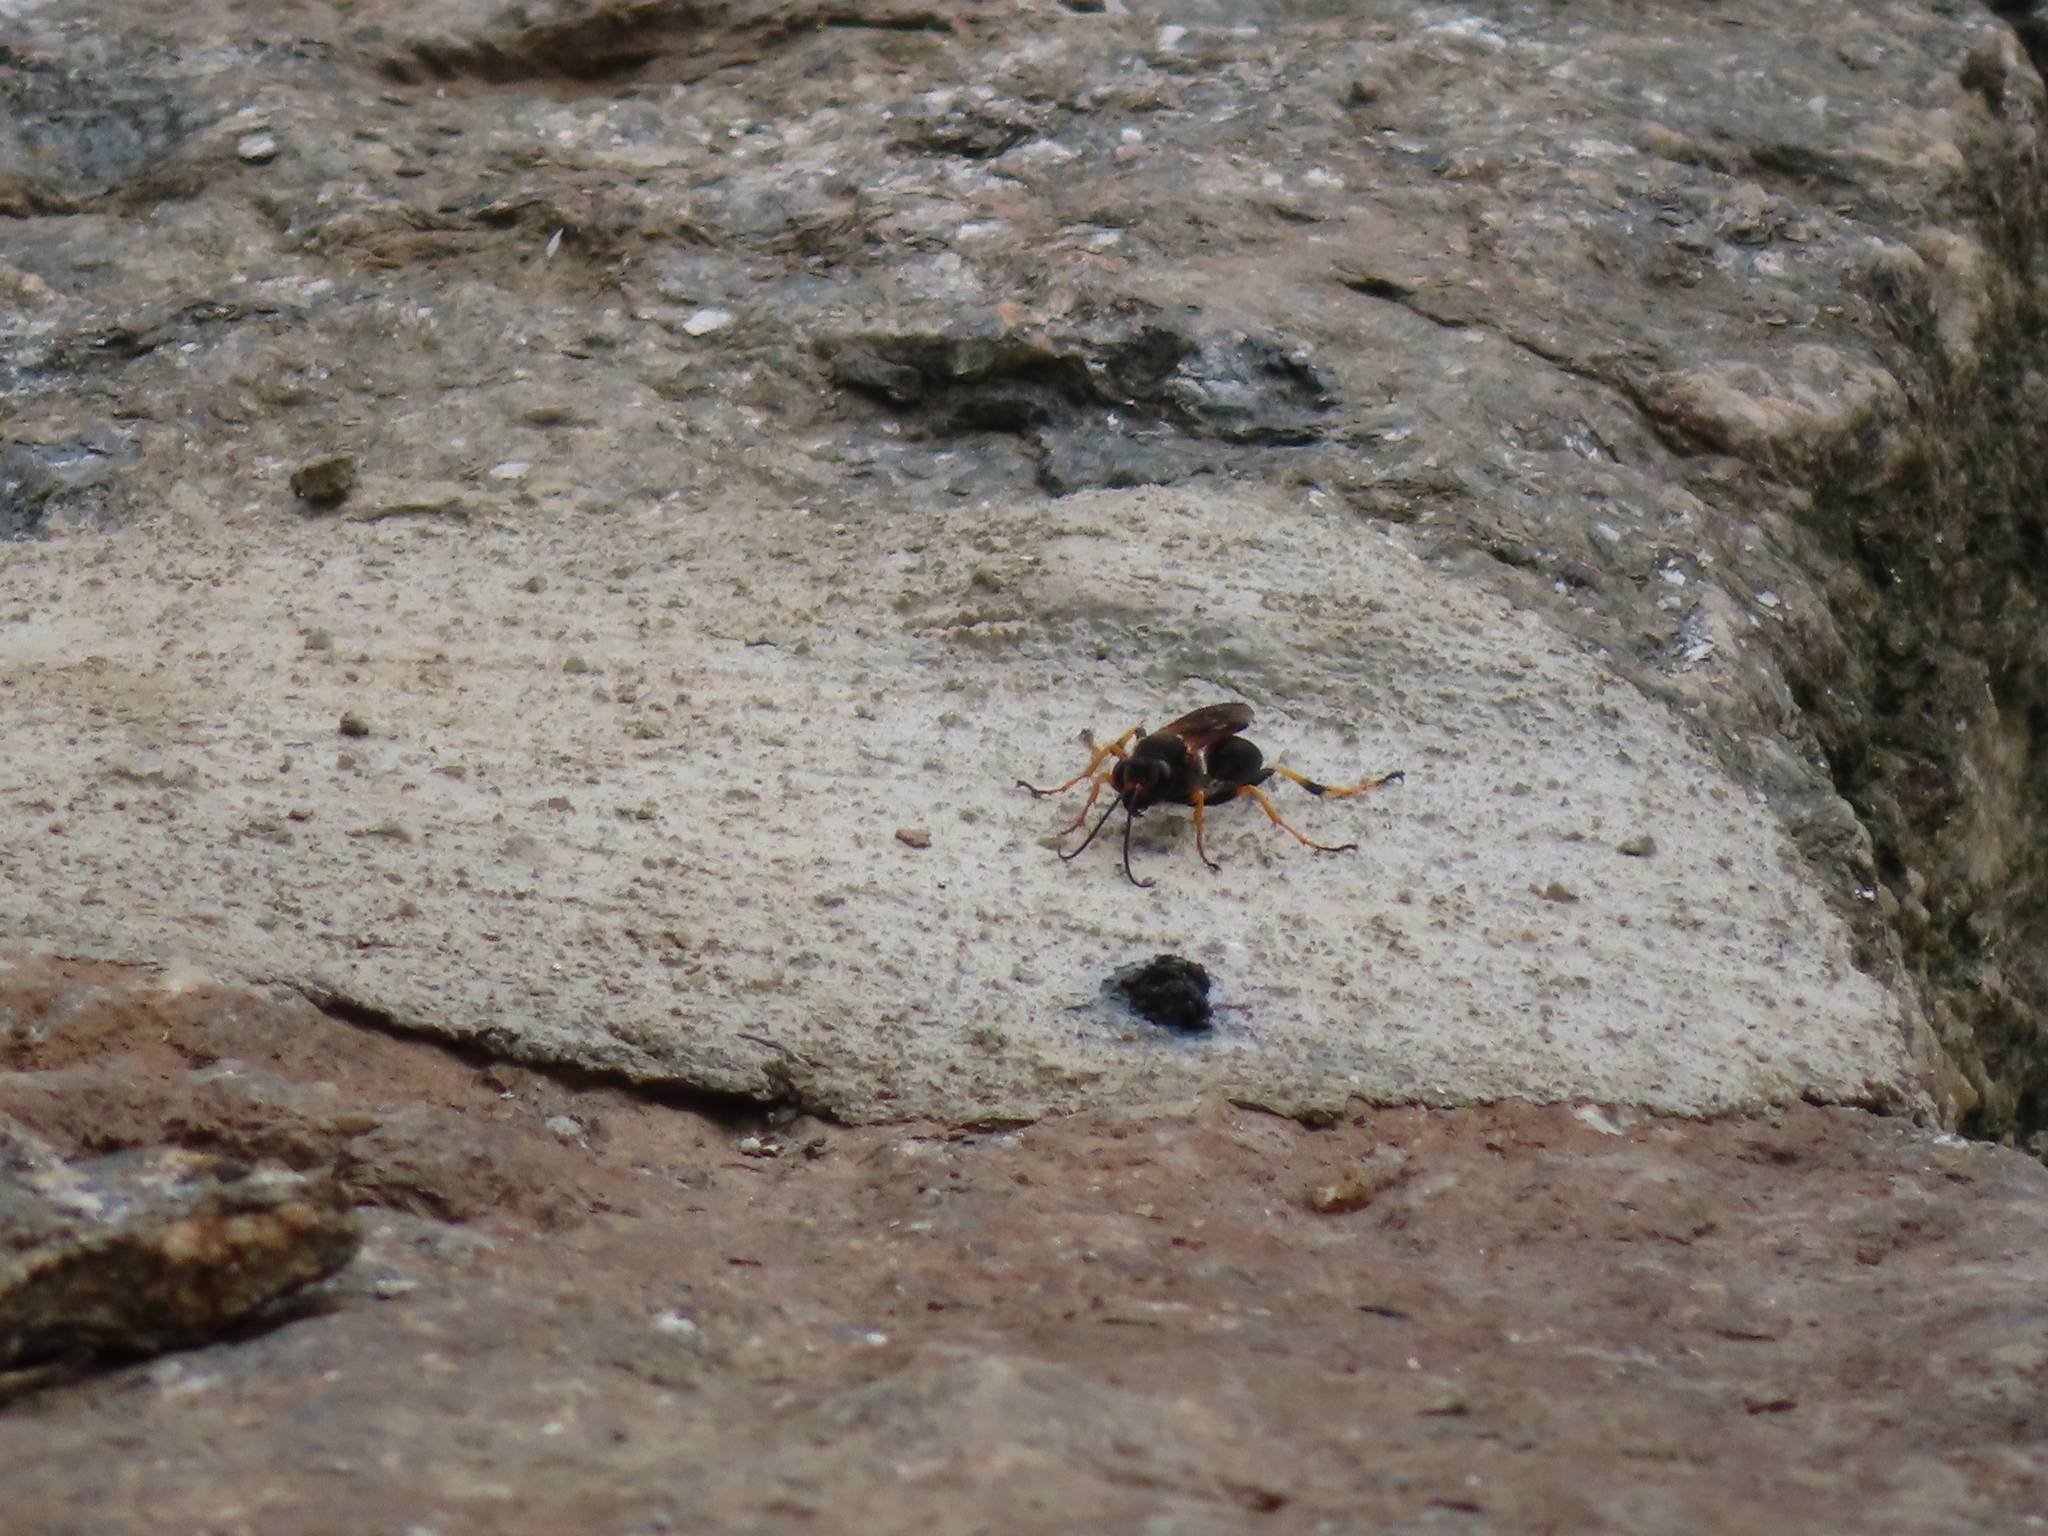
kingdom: Animalia
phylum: Arthropoda
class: Insecta
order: Hymenoptera
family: Sphecidae
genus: Sceliphron
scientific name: Sceliphron caementarium
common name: Mud dauber
